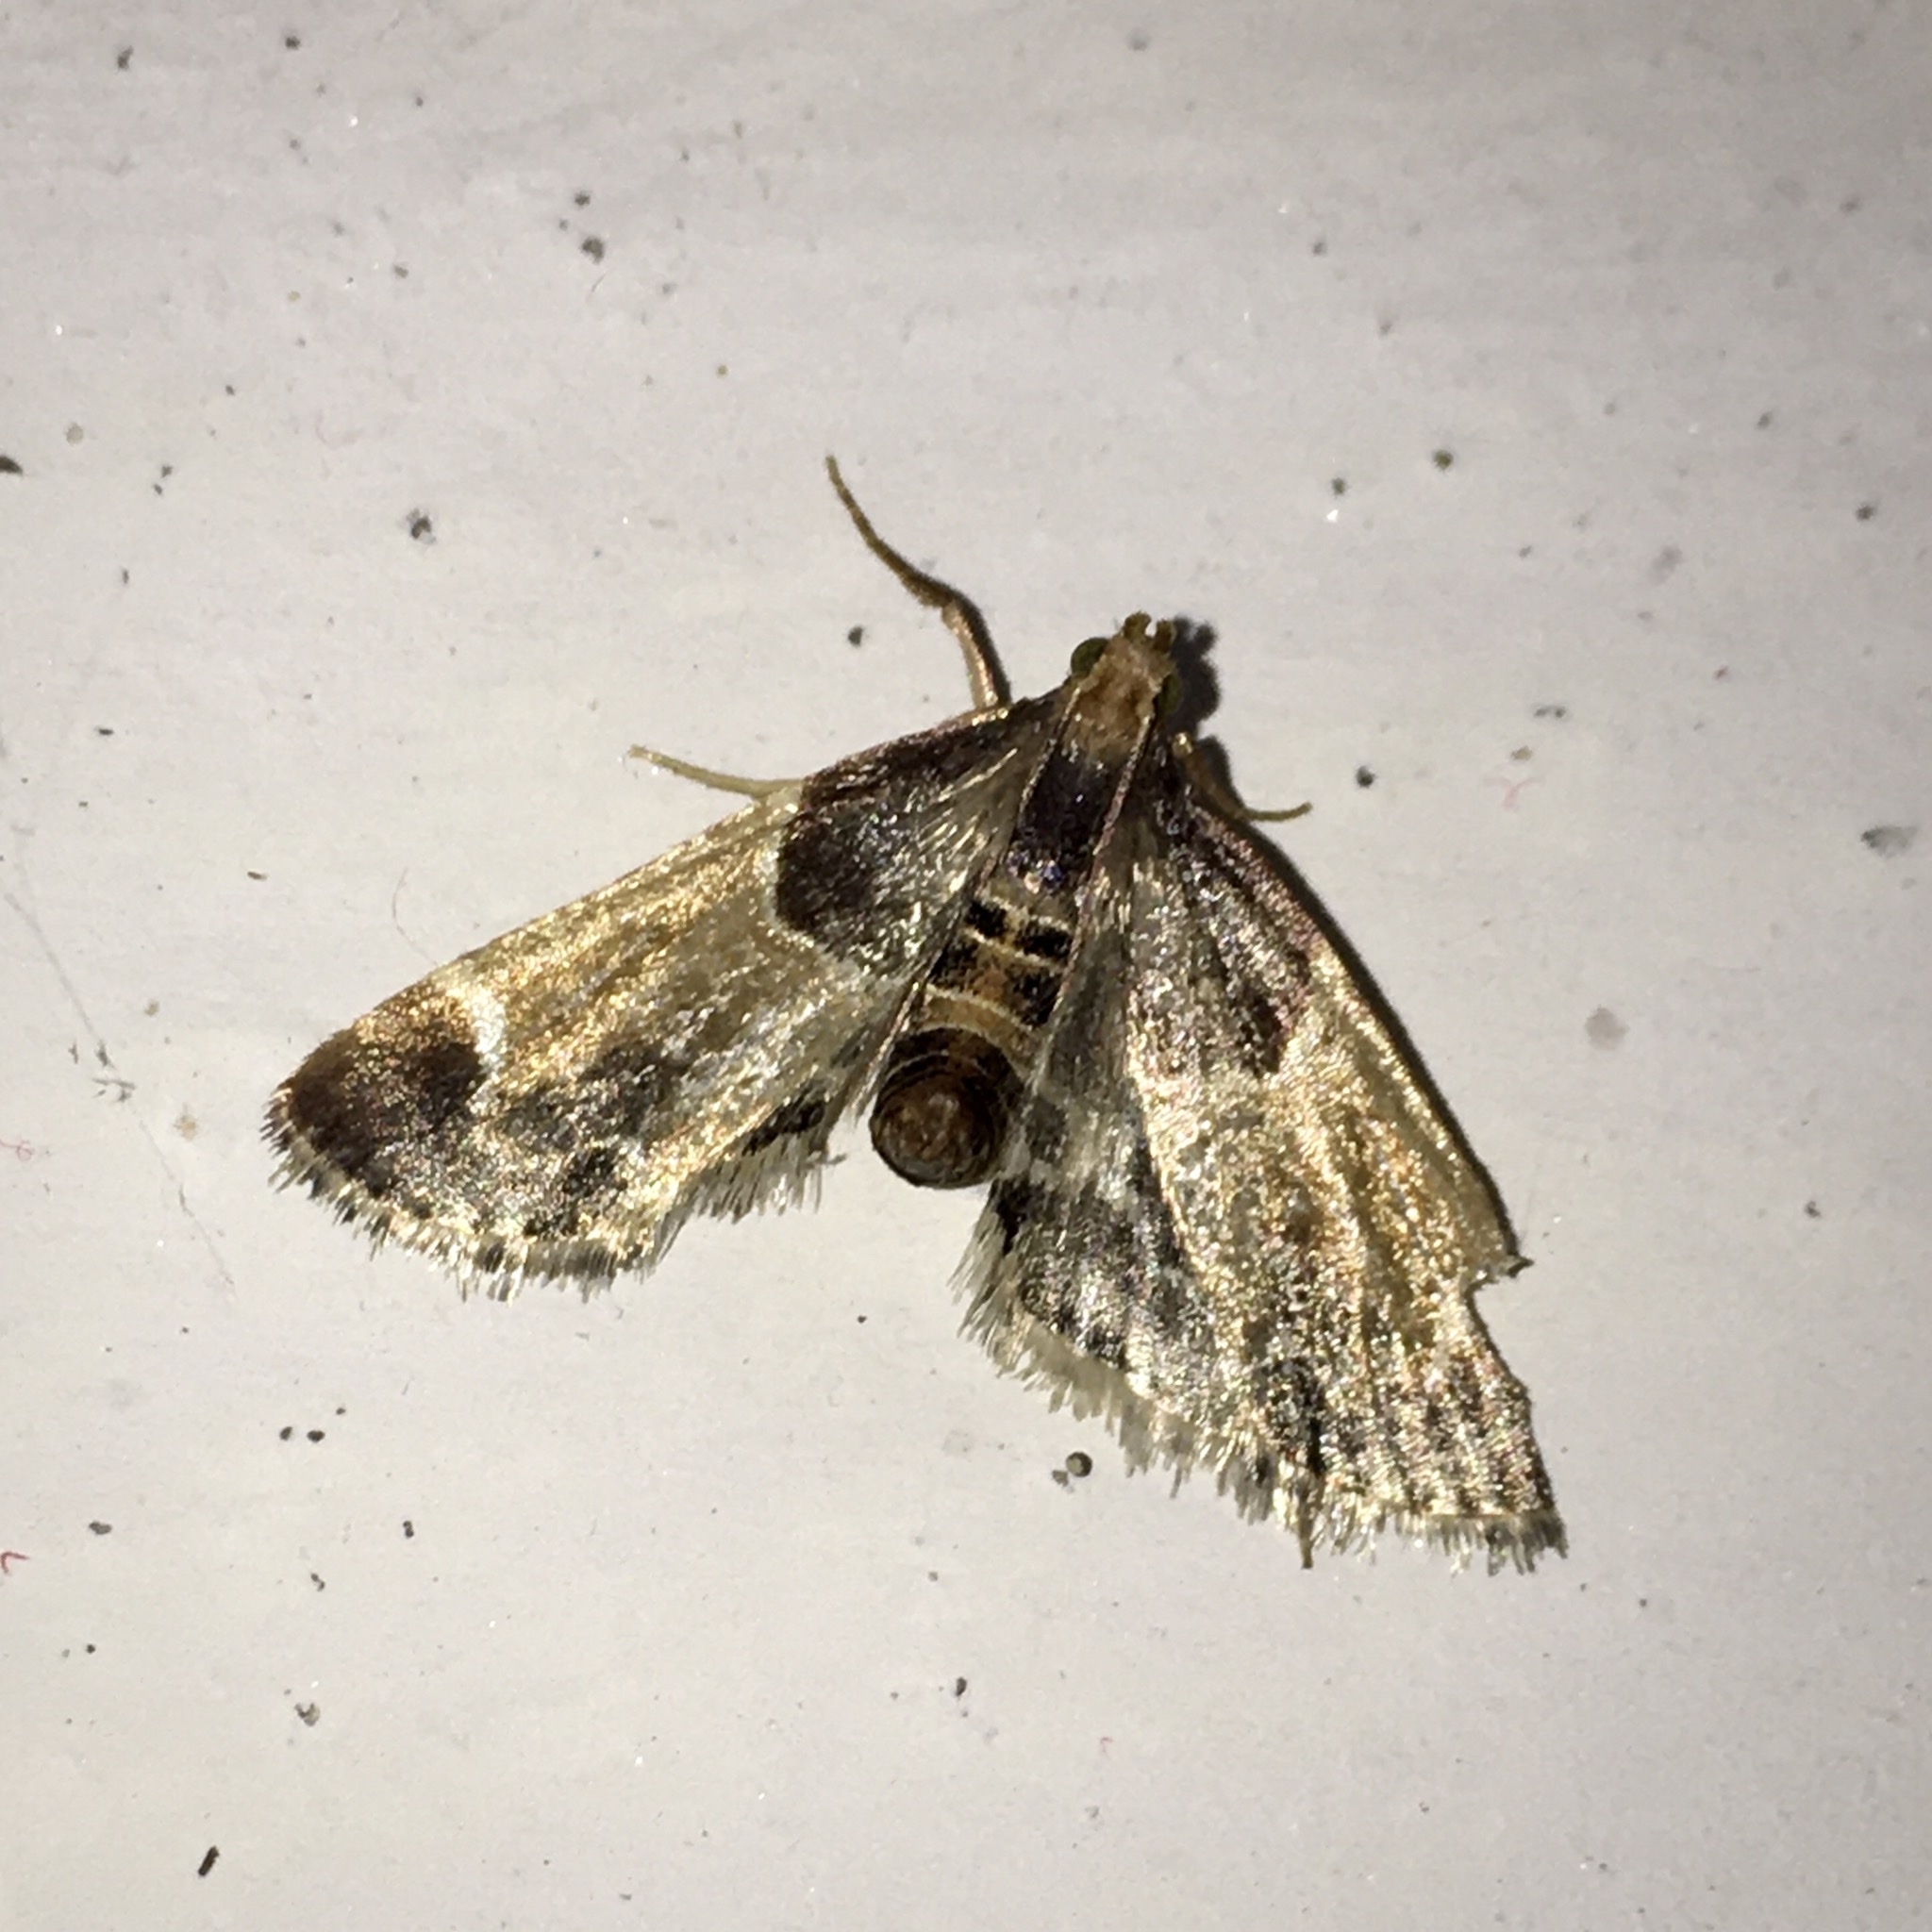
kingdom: Animalia
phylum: Arthropoda
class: Insecta
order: Lepidoptera
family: Pyralidae
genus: Pyralis
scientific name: Pyralis farinalis
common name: Meal moth
